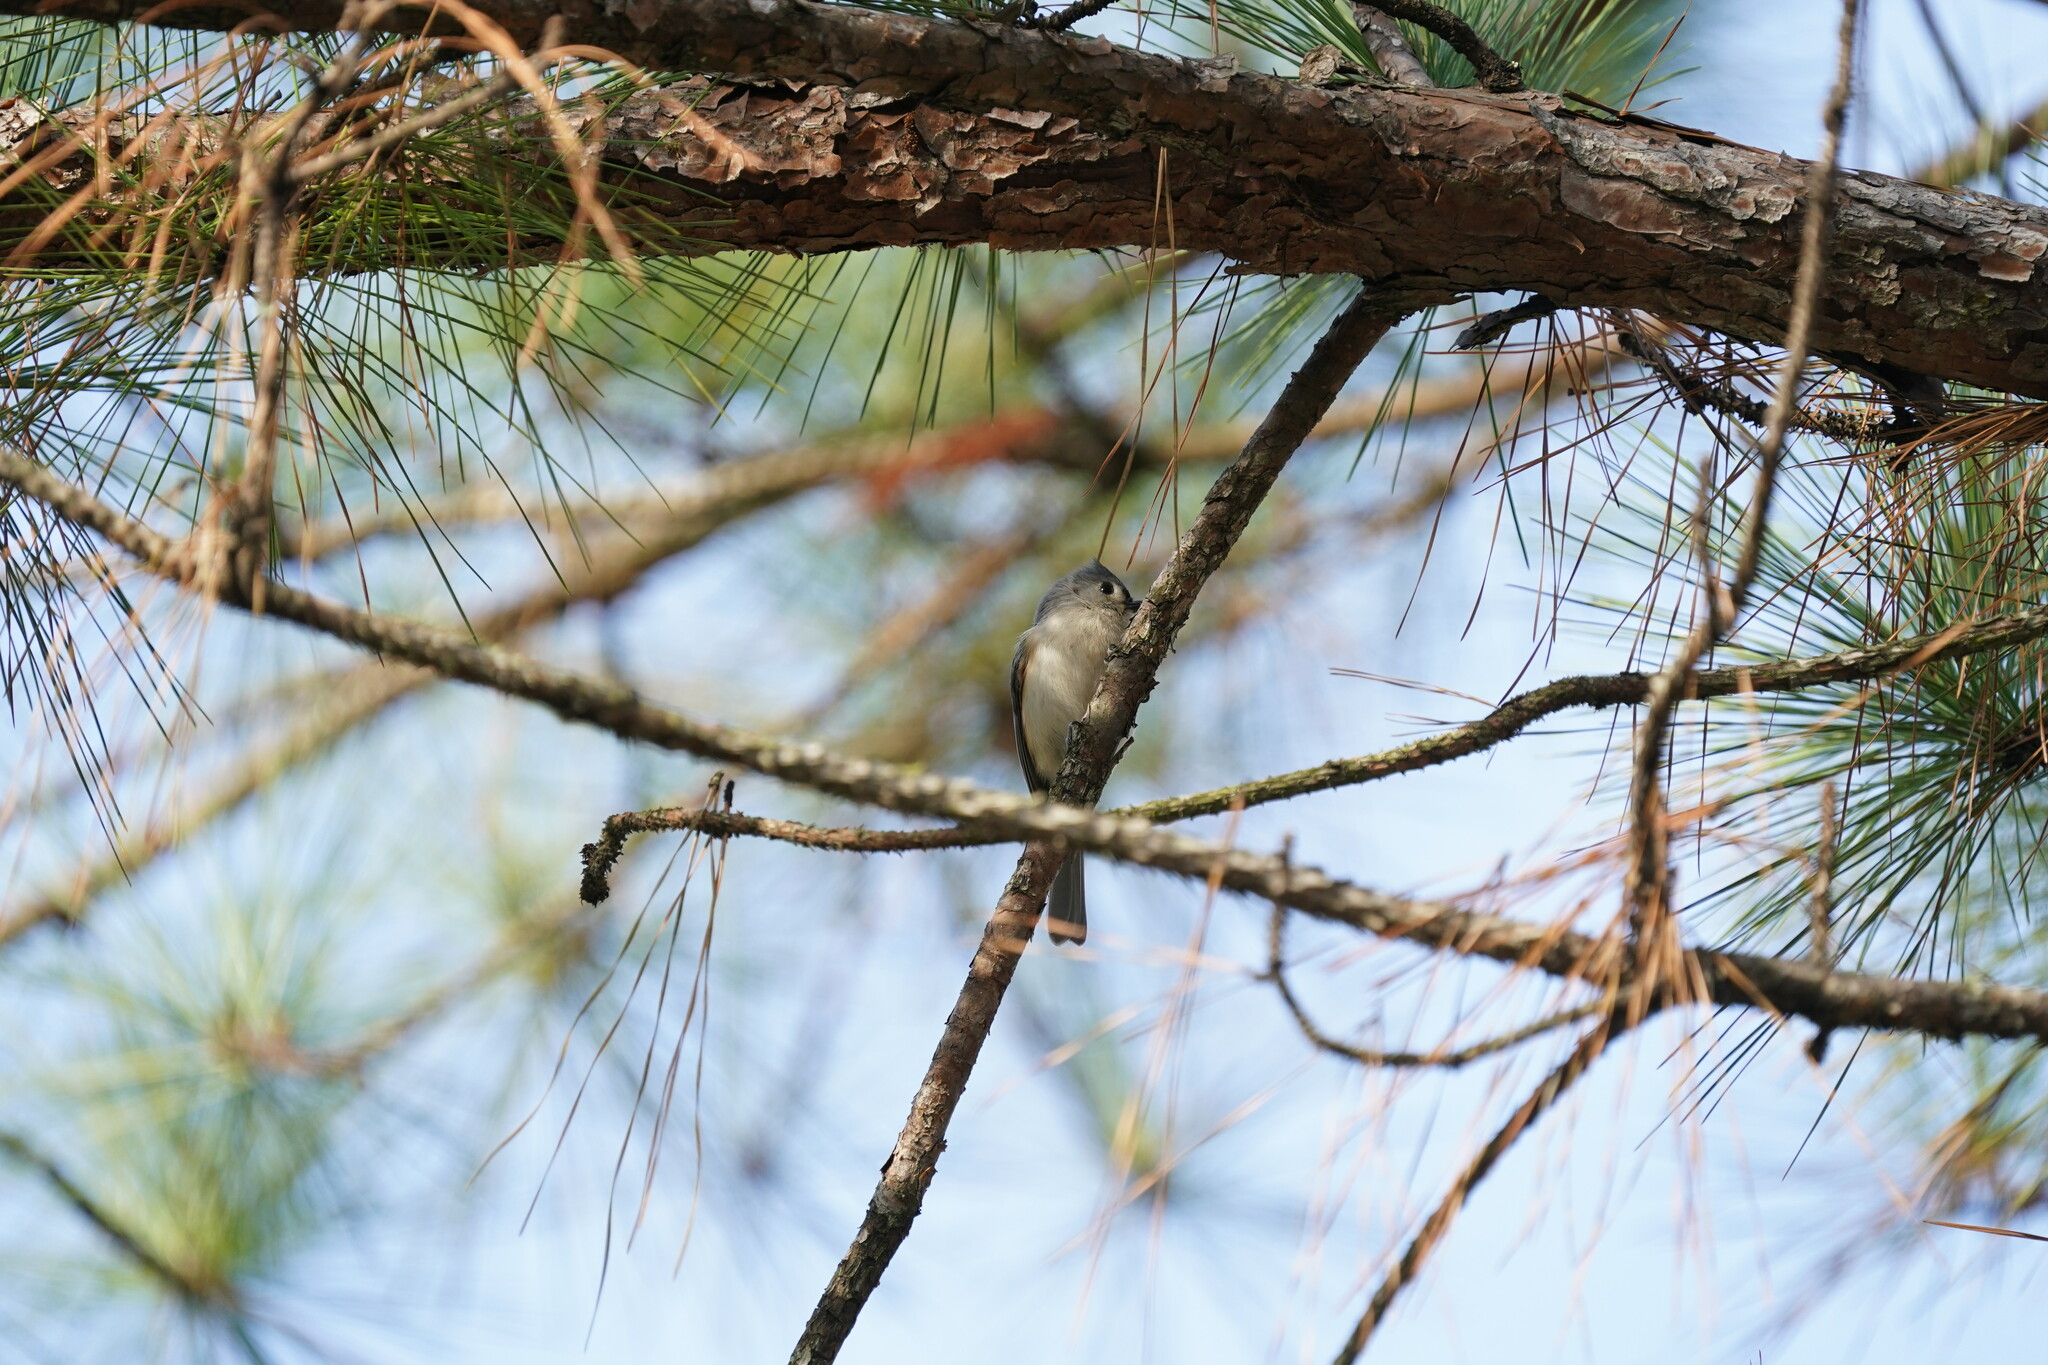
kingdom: Animalia
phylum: Chordata
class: Aves
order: Passeriformes
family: Paridae
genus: Baeolophus
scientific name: Baeolophus bicolor
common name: Tufted titmouse
